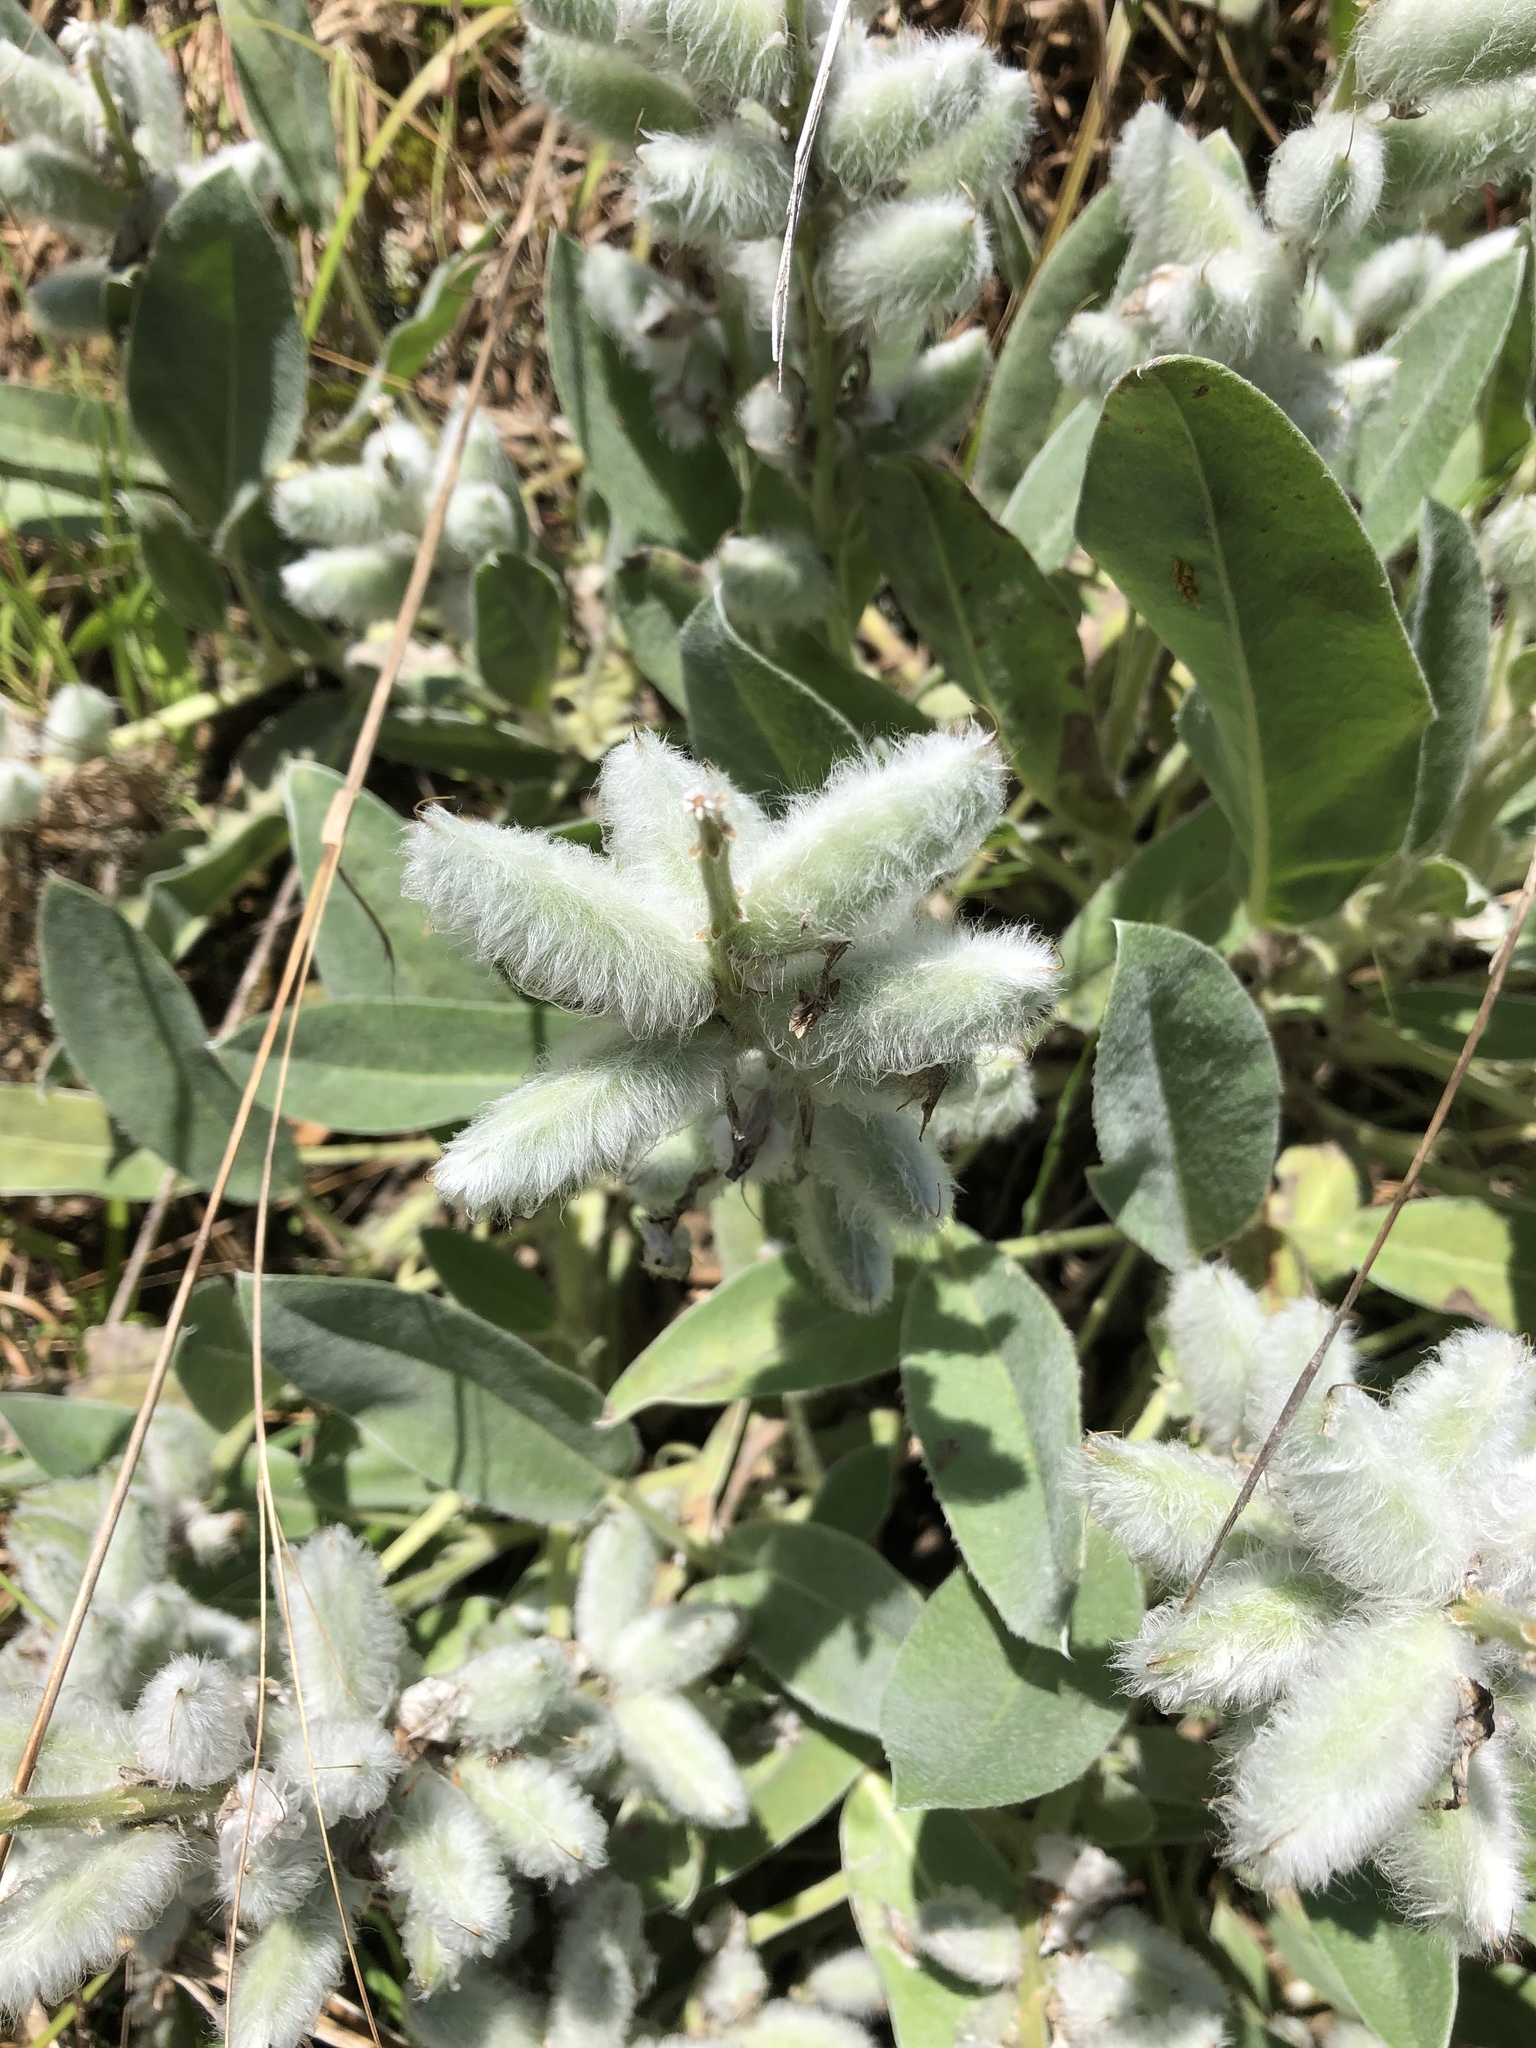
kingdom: Plantae
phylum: Tracheophyta
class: Magnoliopsida
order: Fabales
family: Fabaceae
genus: Lupinus
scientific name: Lupinus diffusus
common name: Oak ridge lupine
